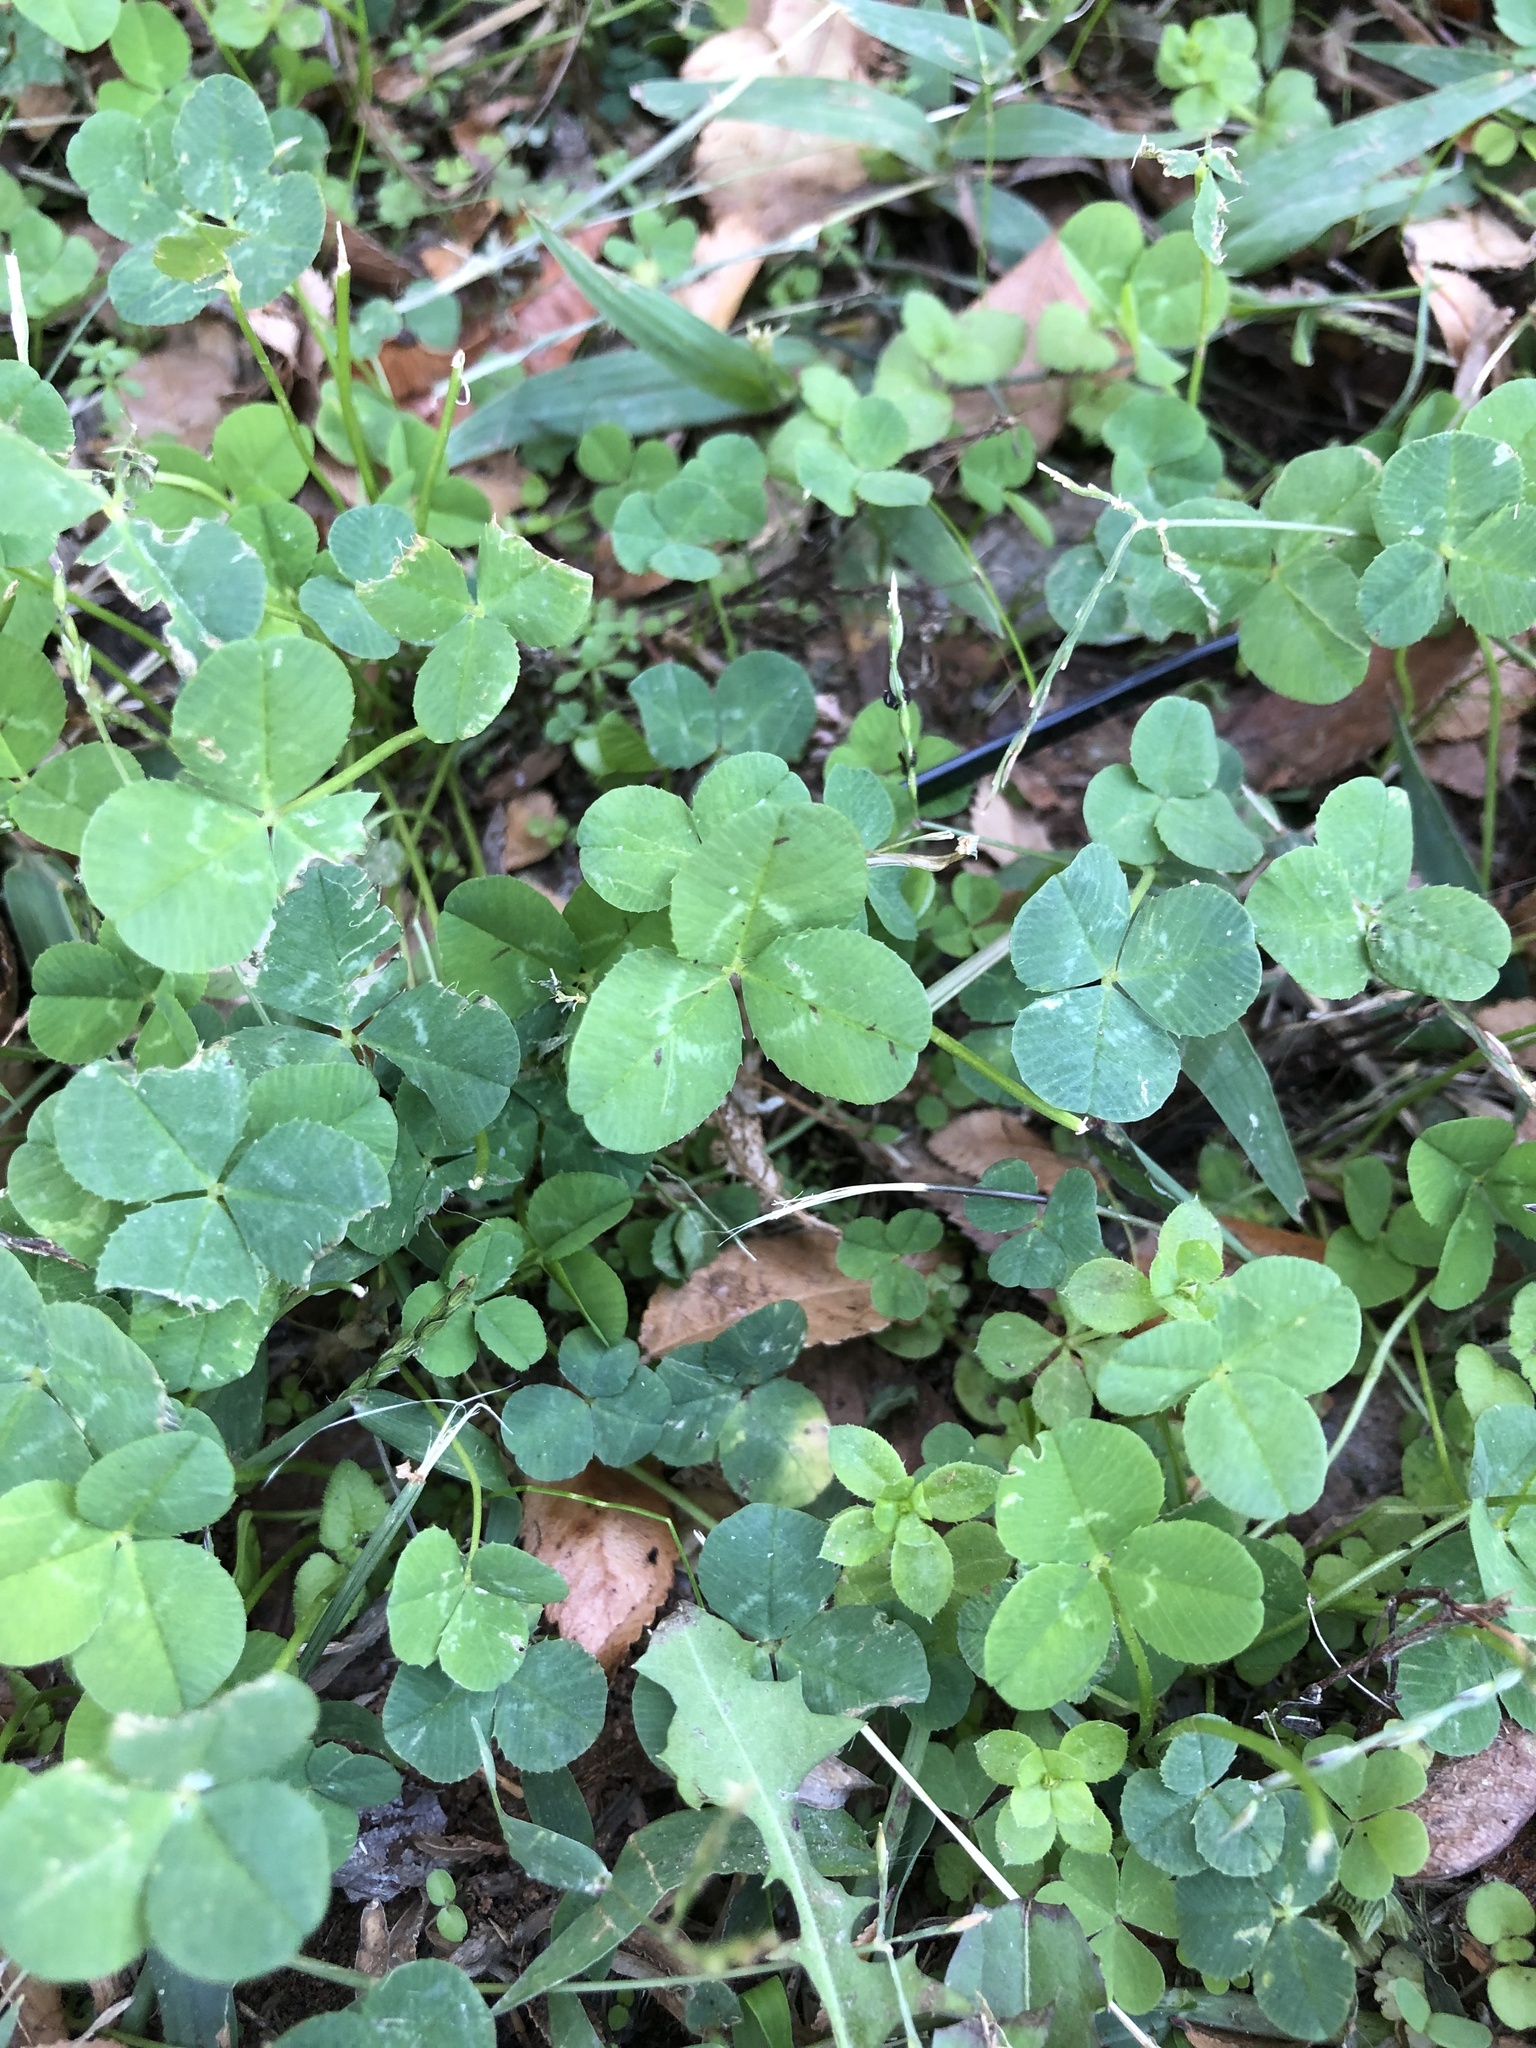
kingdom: Plantae
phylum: Tracheophyta
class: Magnoliopsida
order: Fabales
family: Fabaceae
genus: Trifolium
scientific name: Trifolium repens
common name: White clover
